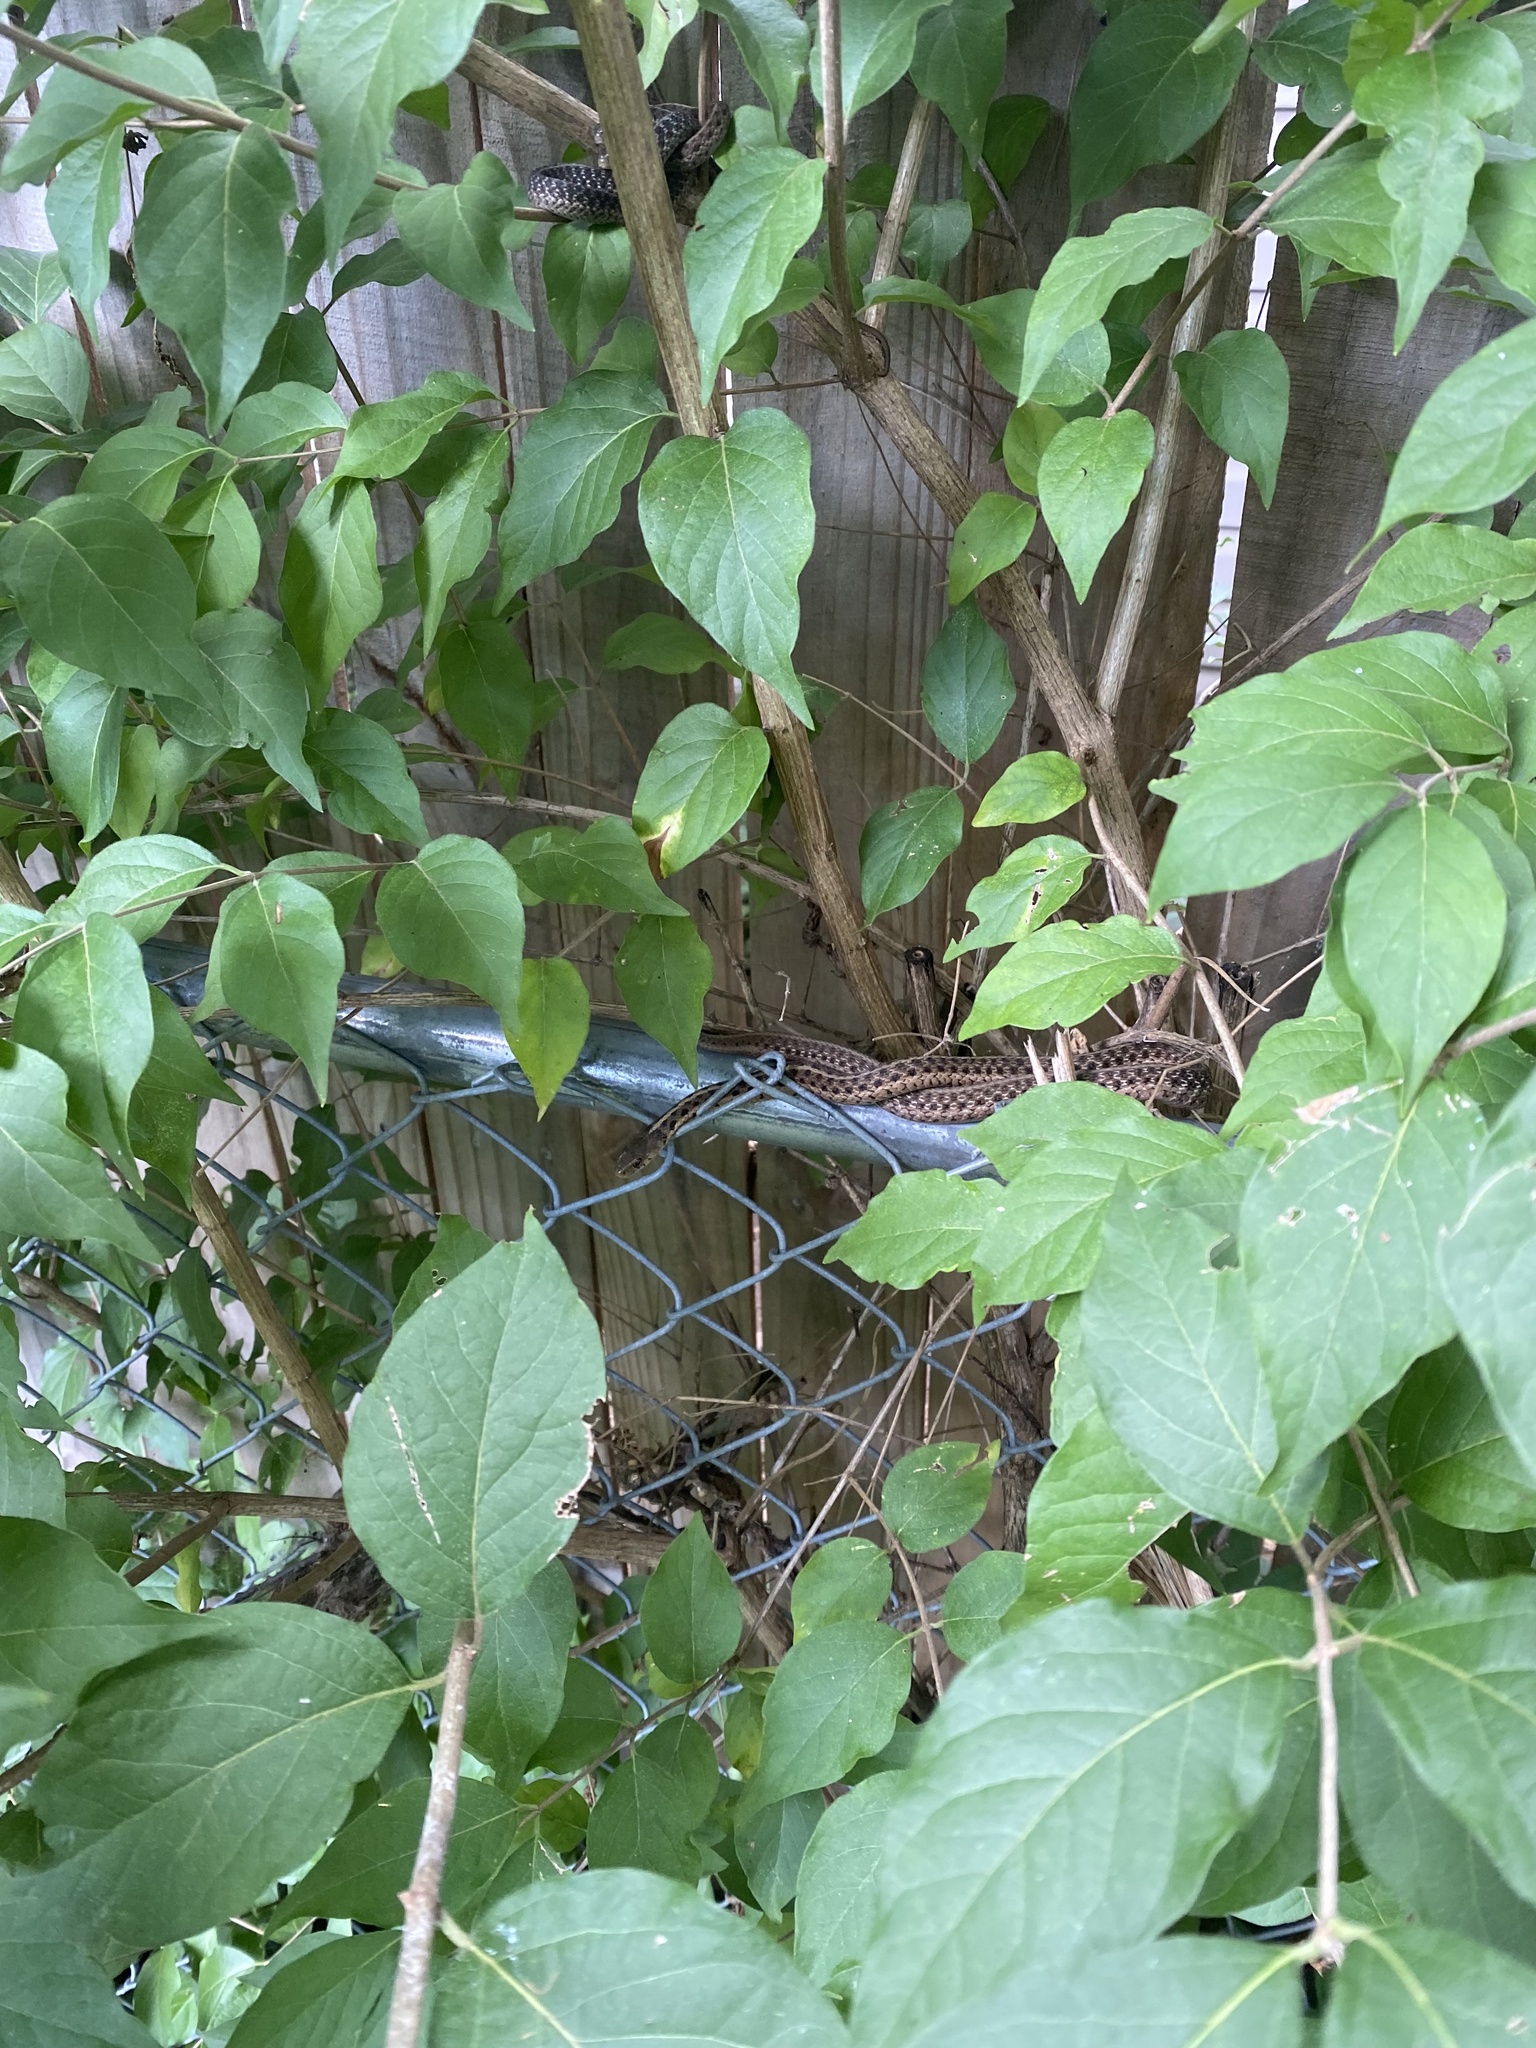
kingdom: Animalia
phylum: Chordata
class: Squamata
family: Colubridae
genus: Thamnophis
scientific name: Thamnophis sirtalis
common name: Common garter snake
